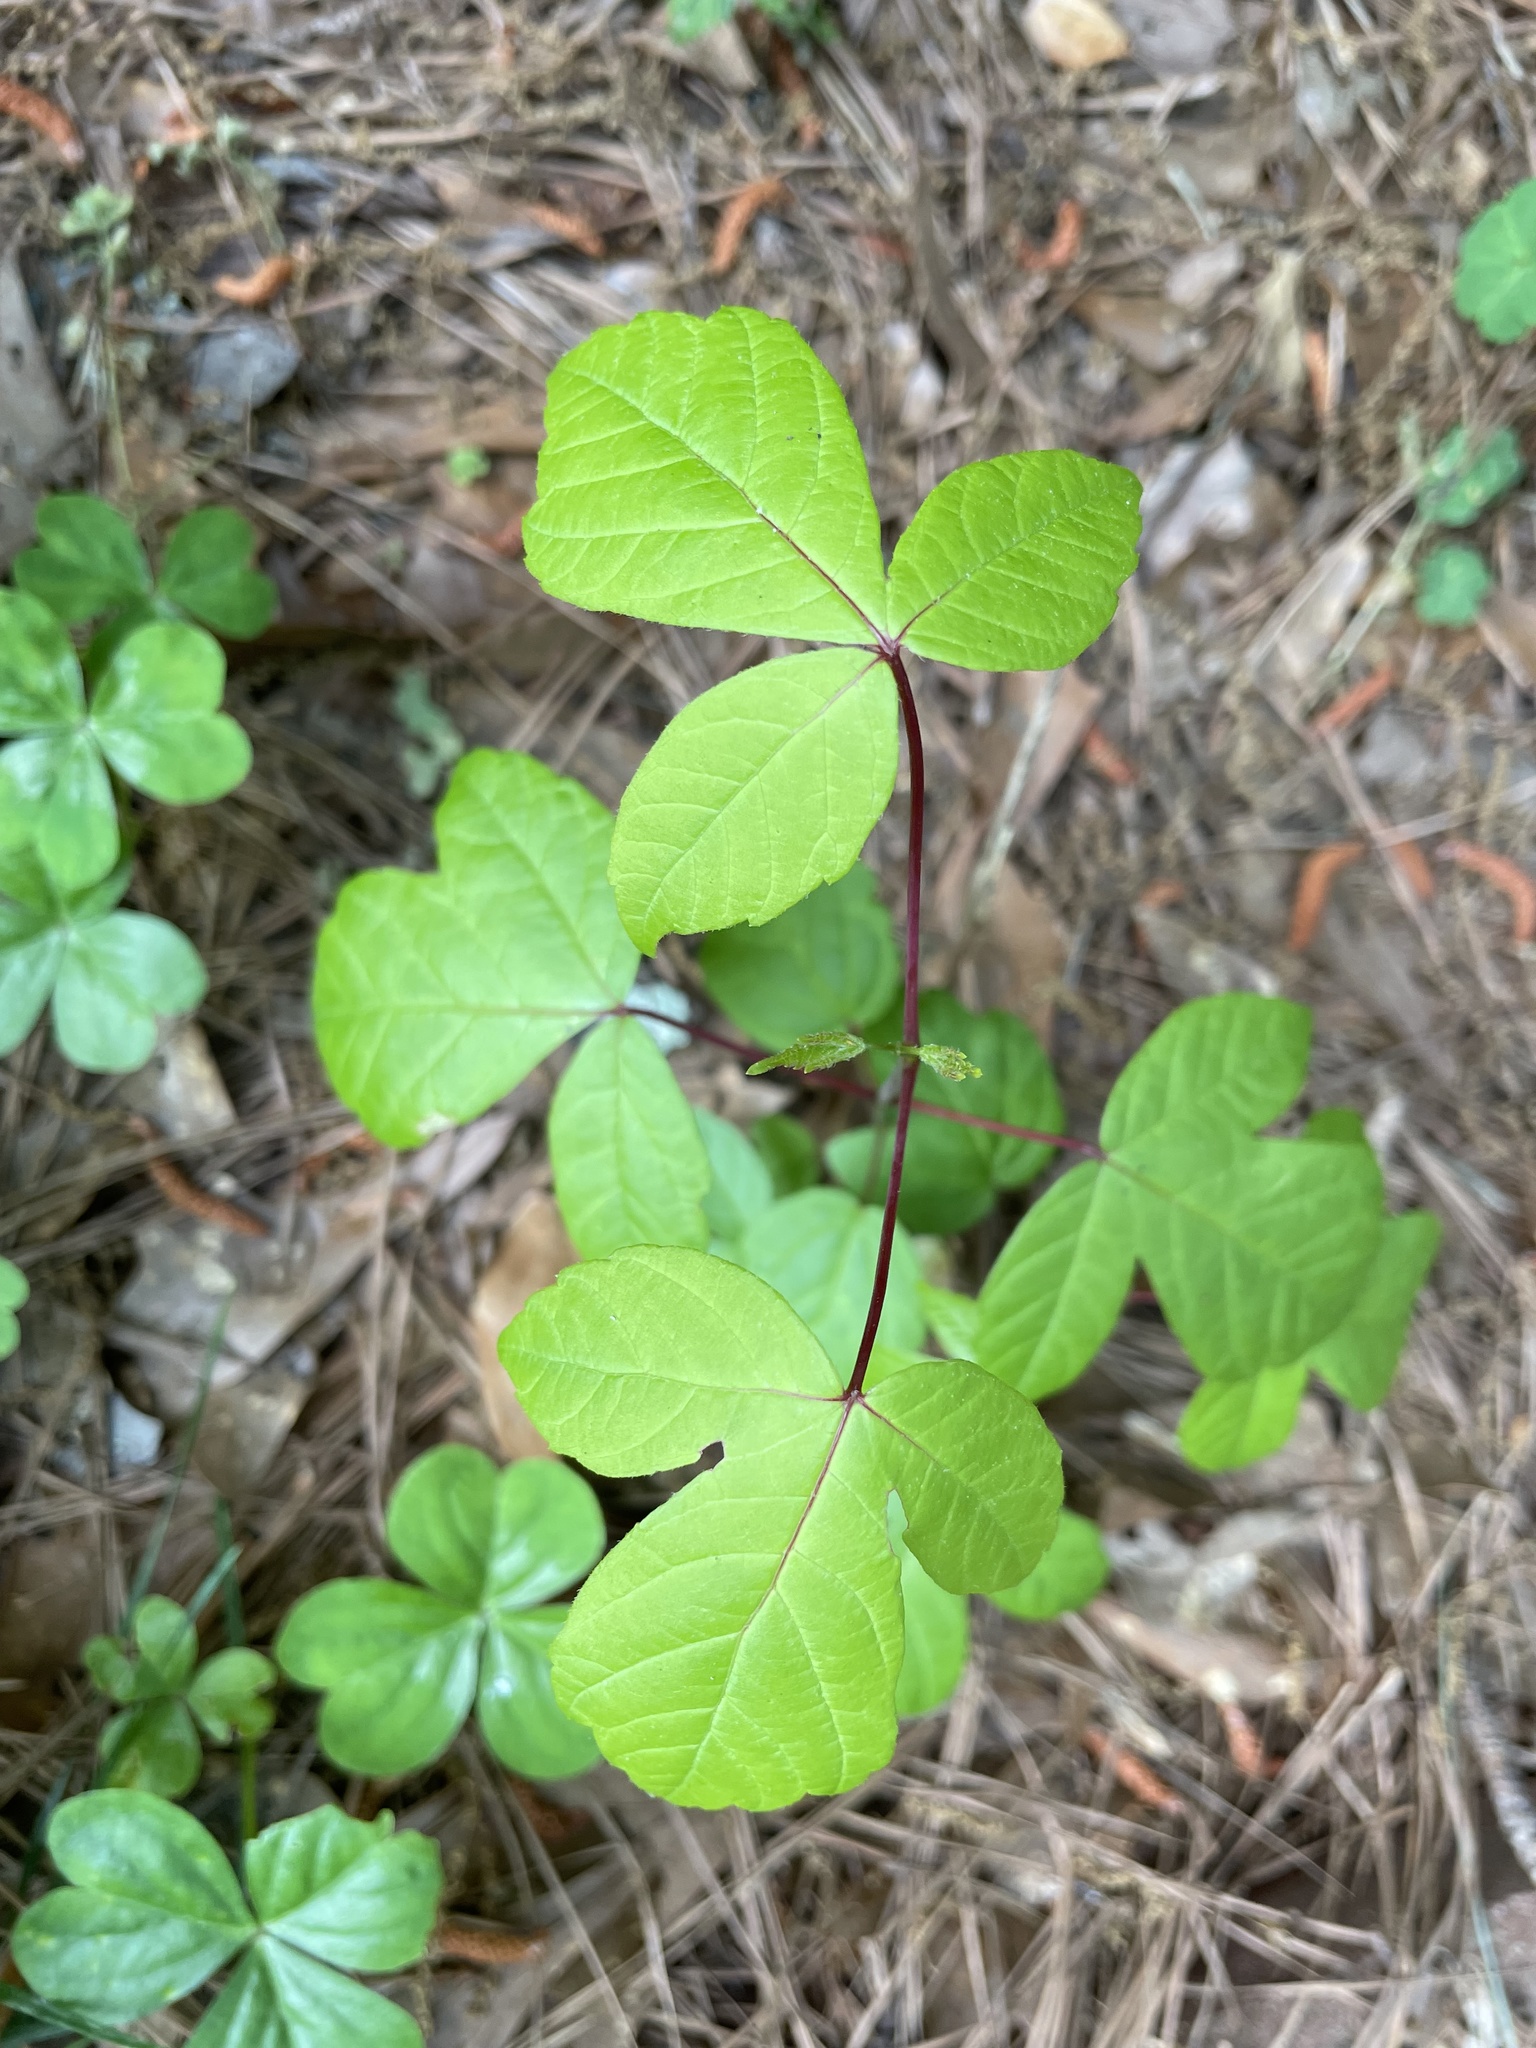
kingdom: Plantae
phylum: Tracheophyta
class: Magnoliopsida
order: Sapindales
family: Sapindaceae
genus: Acer
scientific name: Acer negundo
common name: Ashleaf maple
